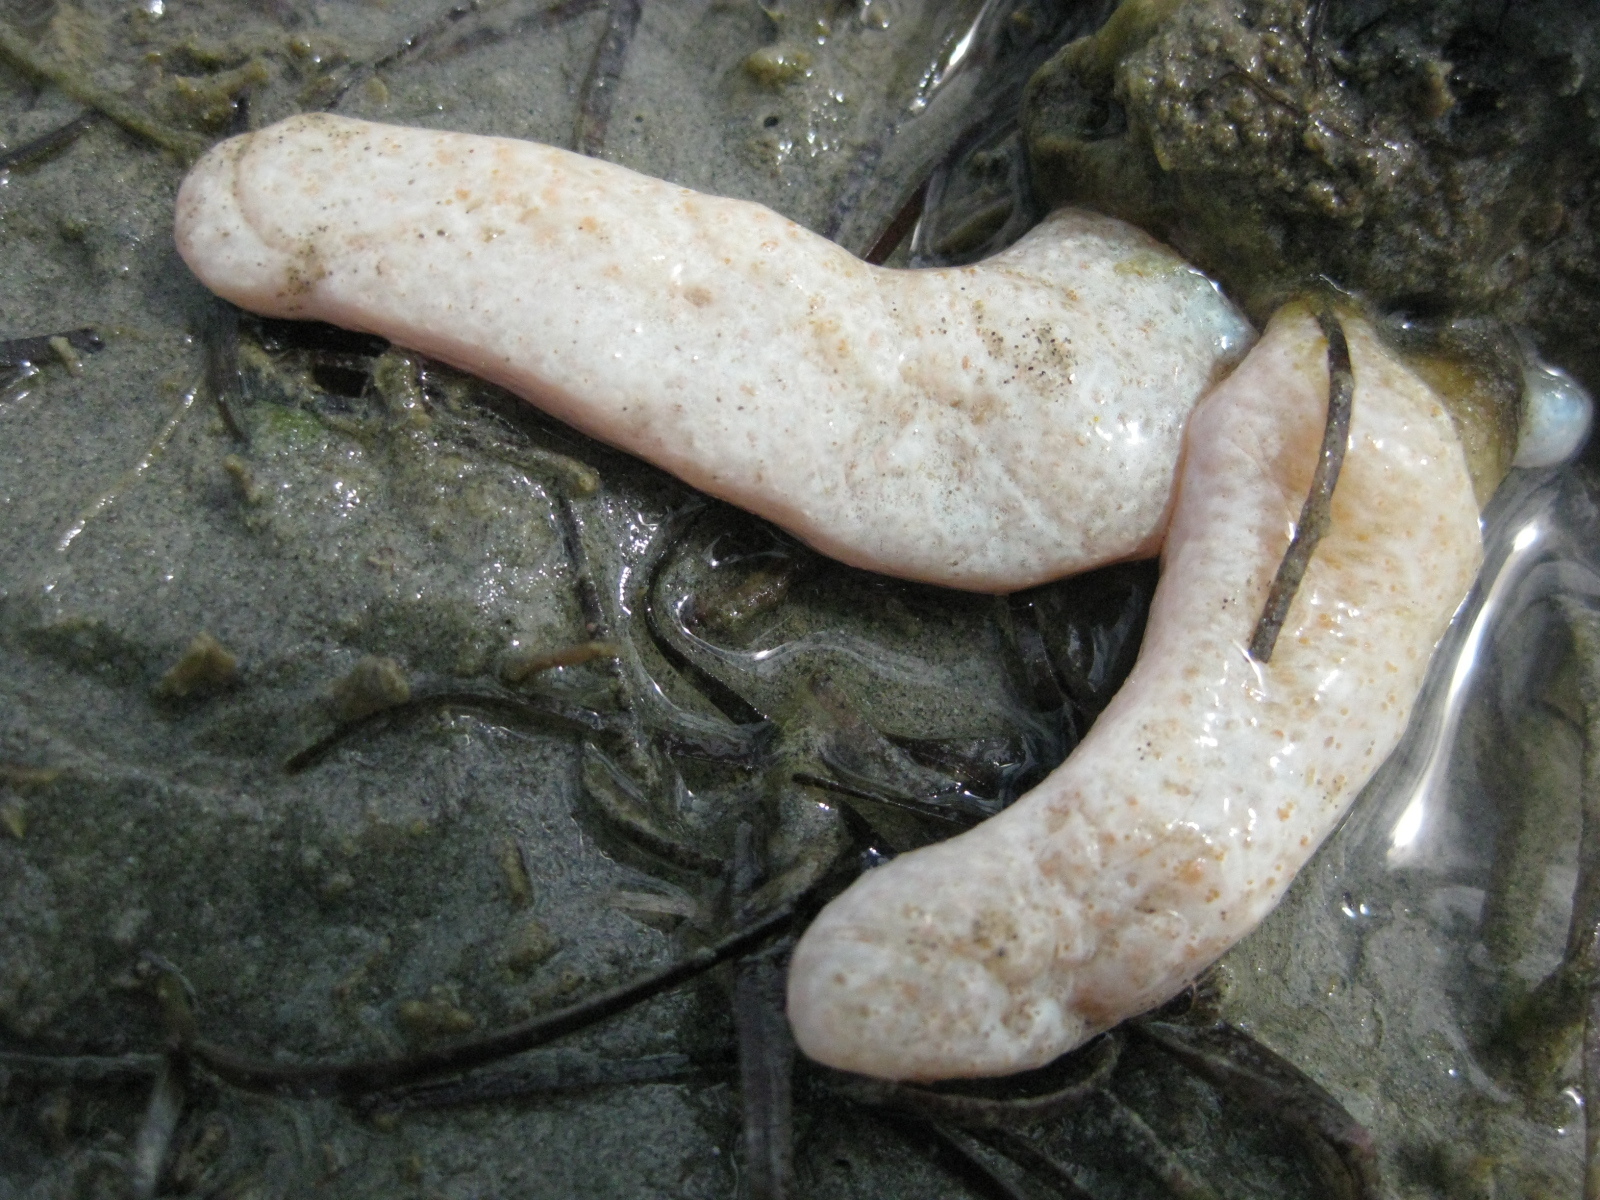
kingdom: Animalia
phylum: Chordata
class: Ascidiacea
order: Aplousobranchia
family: Polycitoridae
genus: Eudistoma
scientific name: Eudistoma elongatum
